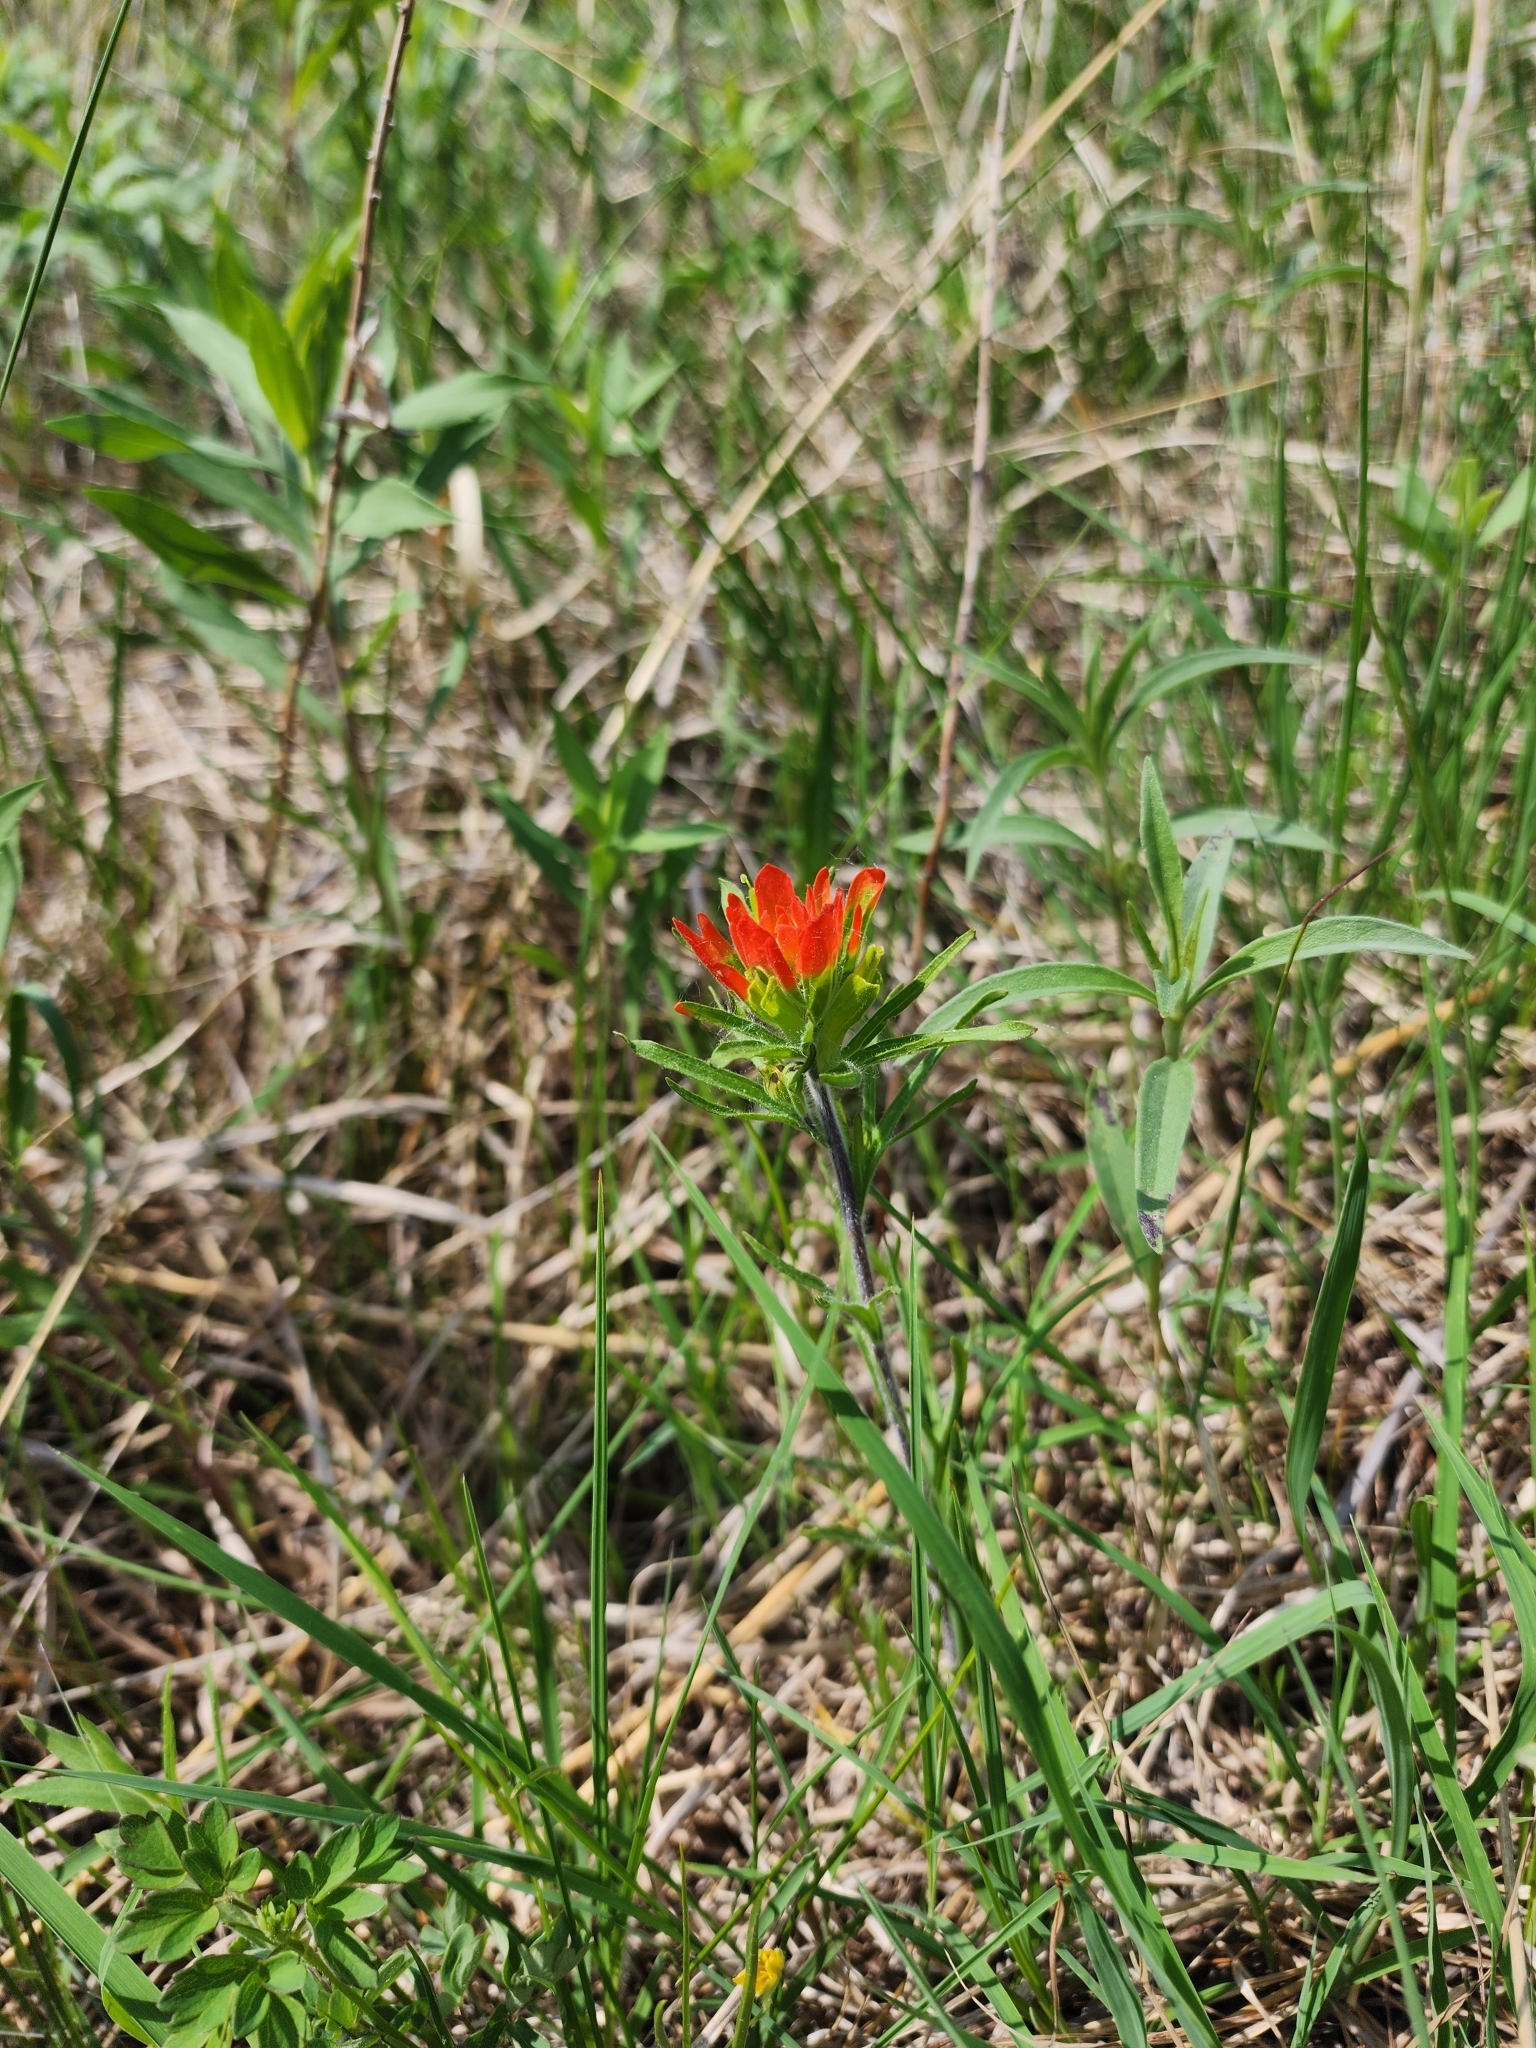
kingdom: Plantae
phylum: Tracheophyta
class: Magnoliopsida
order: Lamiales
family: Orobanchaceae
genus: Castilleja
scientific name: Castilleja coccinea
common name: Scarlet paintbrush
